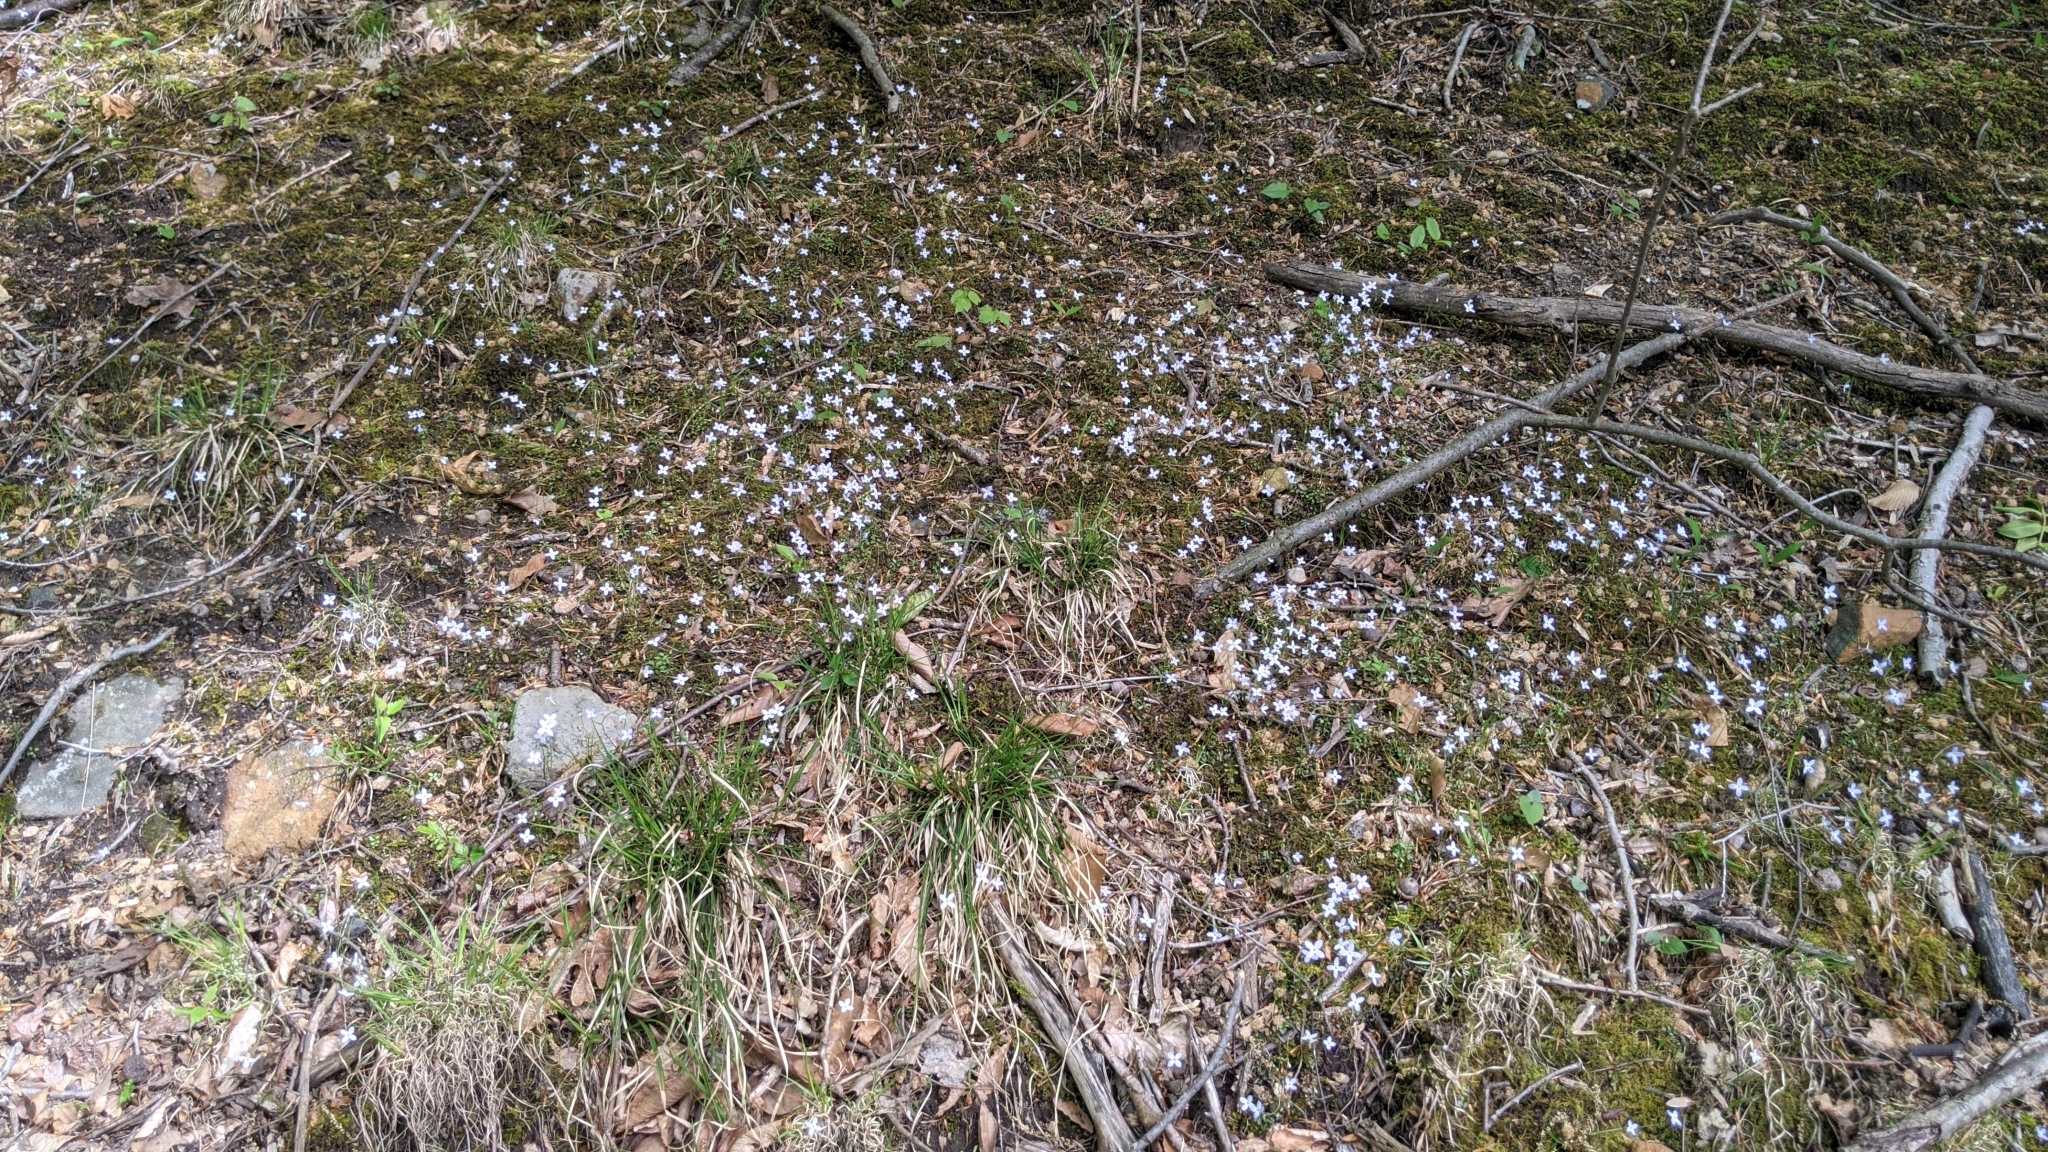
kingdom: Plantae
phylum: Tracheophyta
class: Magnoliopsida
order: Gentianales
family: Rubiaceae
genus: Houstonia
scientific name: Houstonia caerulea
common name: Bluets
